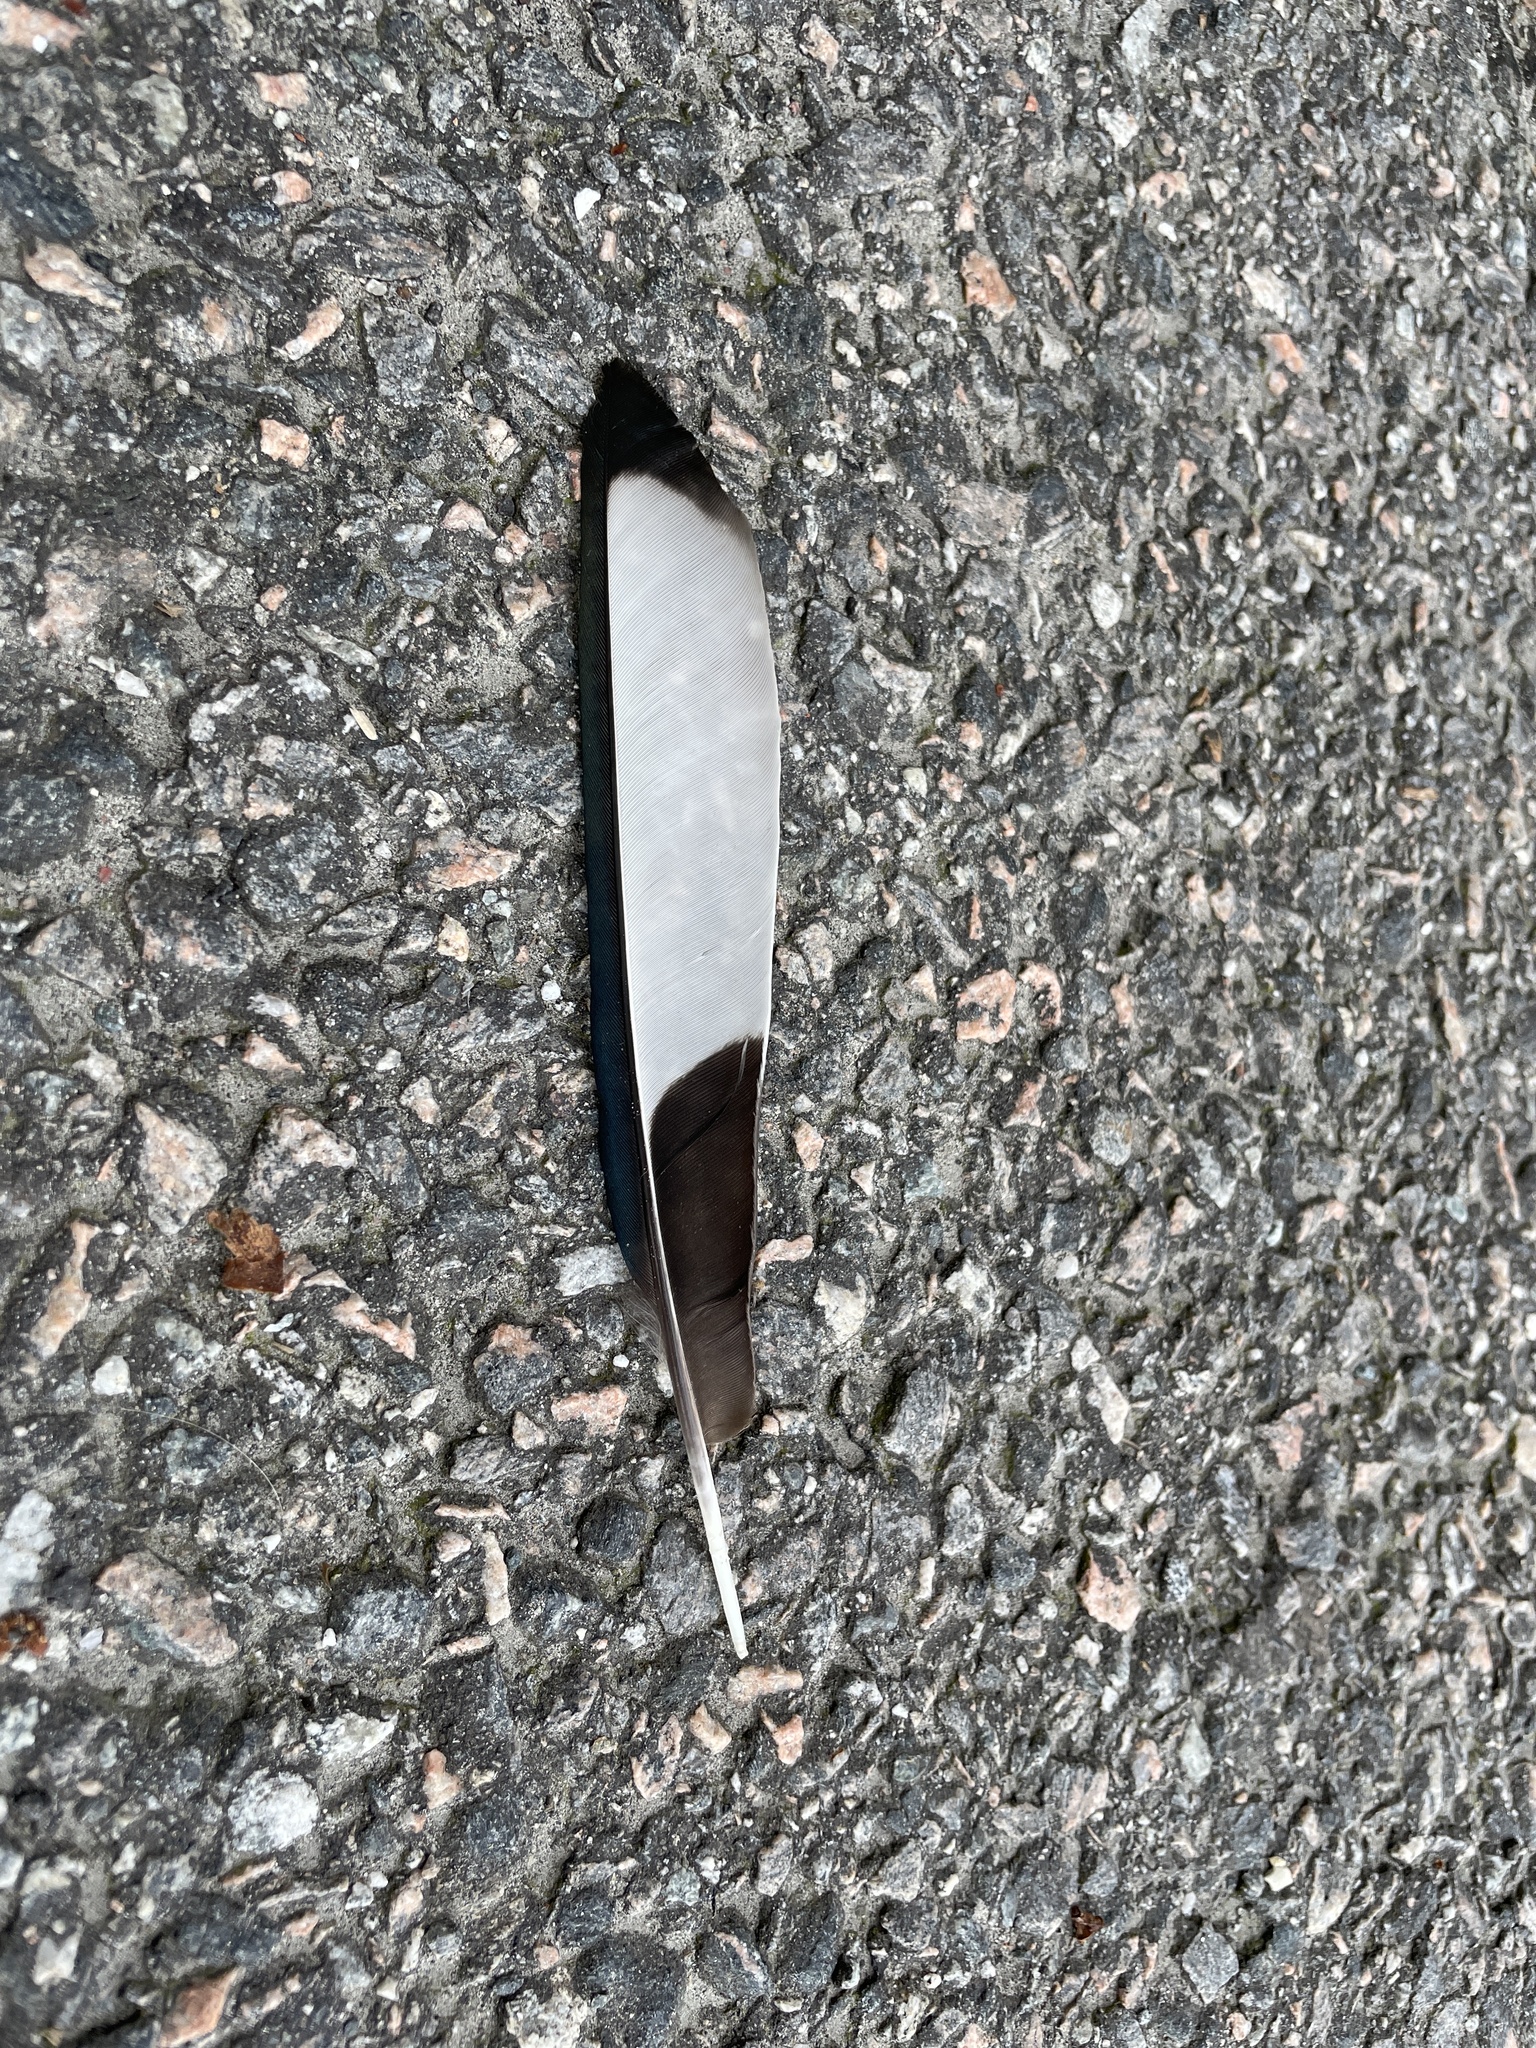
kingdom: Animalia
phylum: Chordata
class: Aves
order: Passeriformes
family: Corvidae
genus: Pica
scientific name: Pica pica
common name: Eurasian magpie
